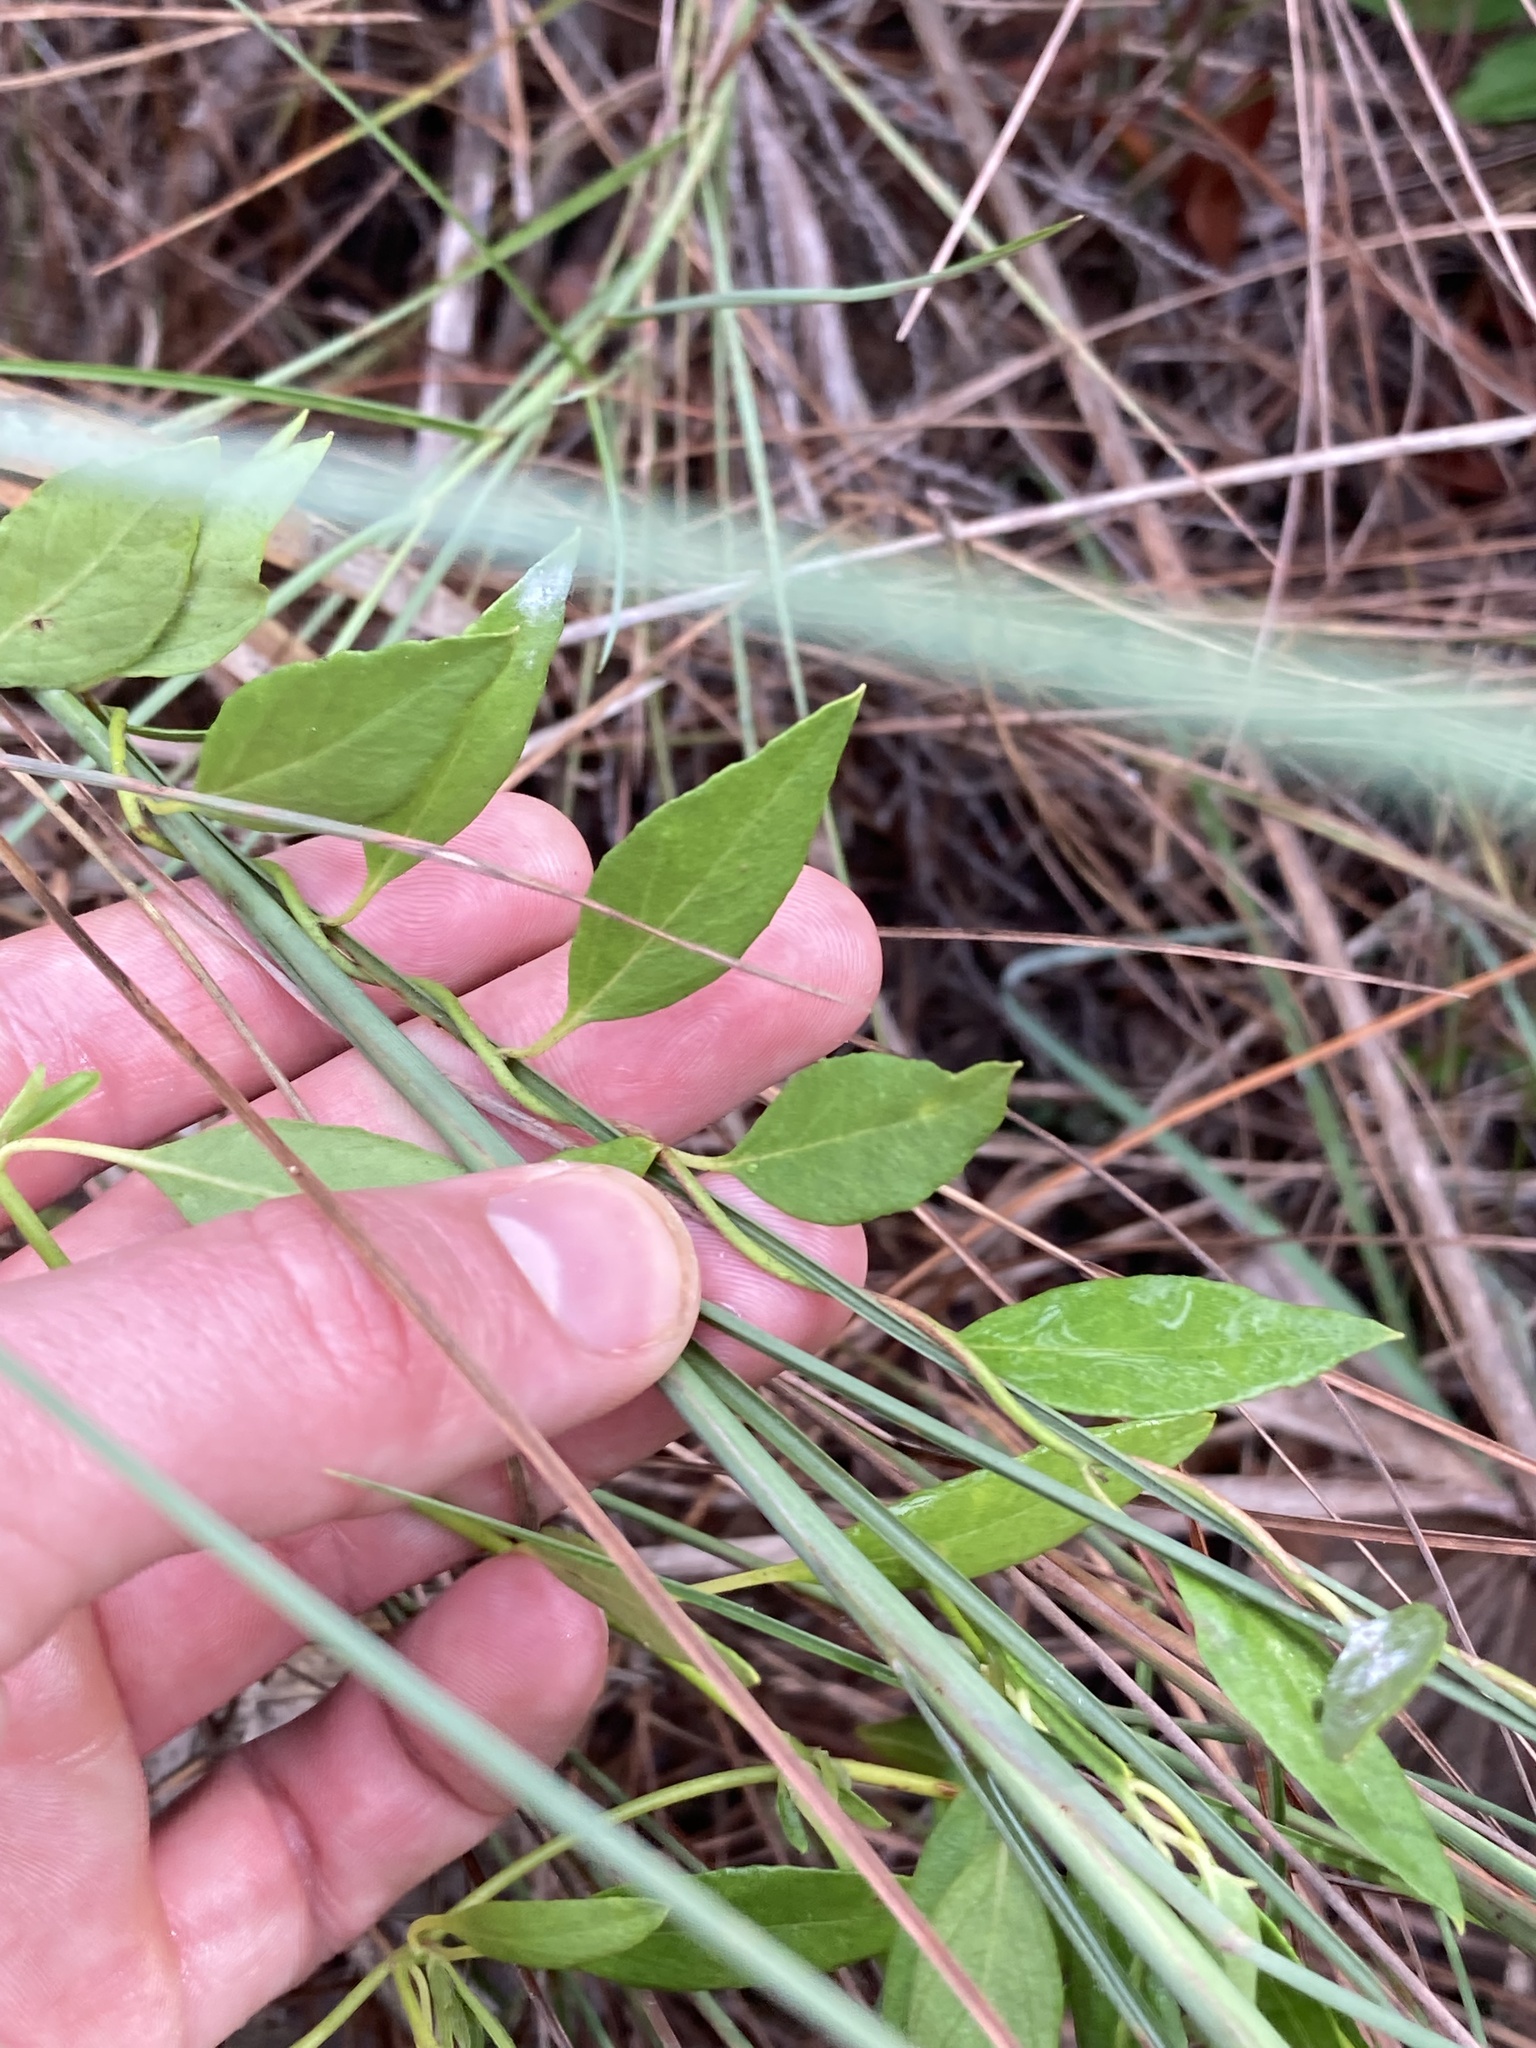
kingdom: Plantae
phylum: Tracheophyta
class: Magnoliopsida
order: Solanales
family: Convolvulaceae
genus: Jacquemontia
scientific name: Jacquemontia curtissii
